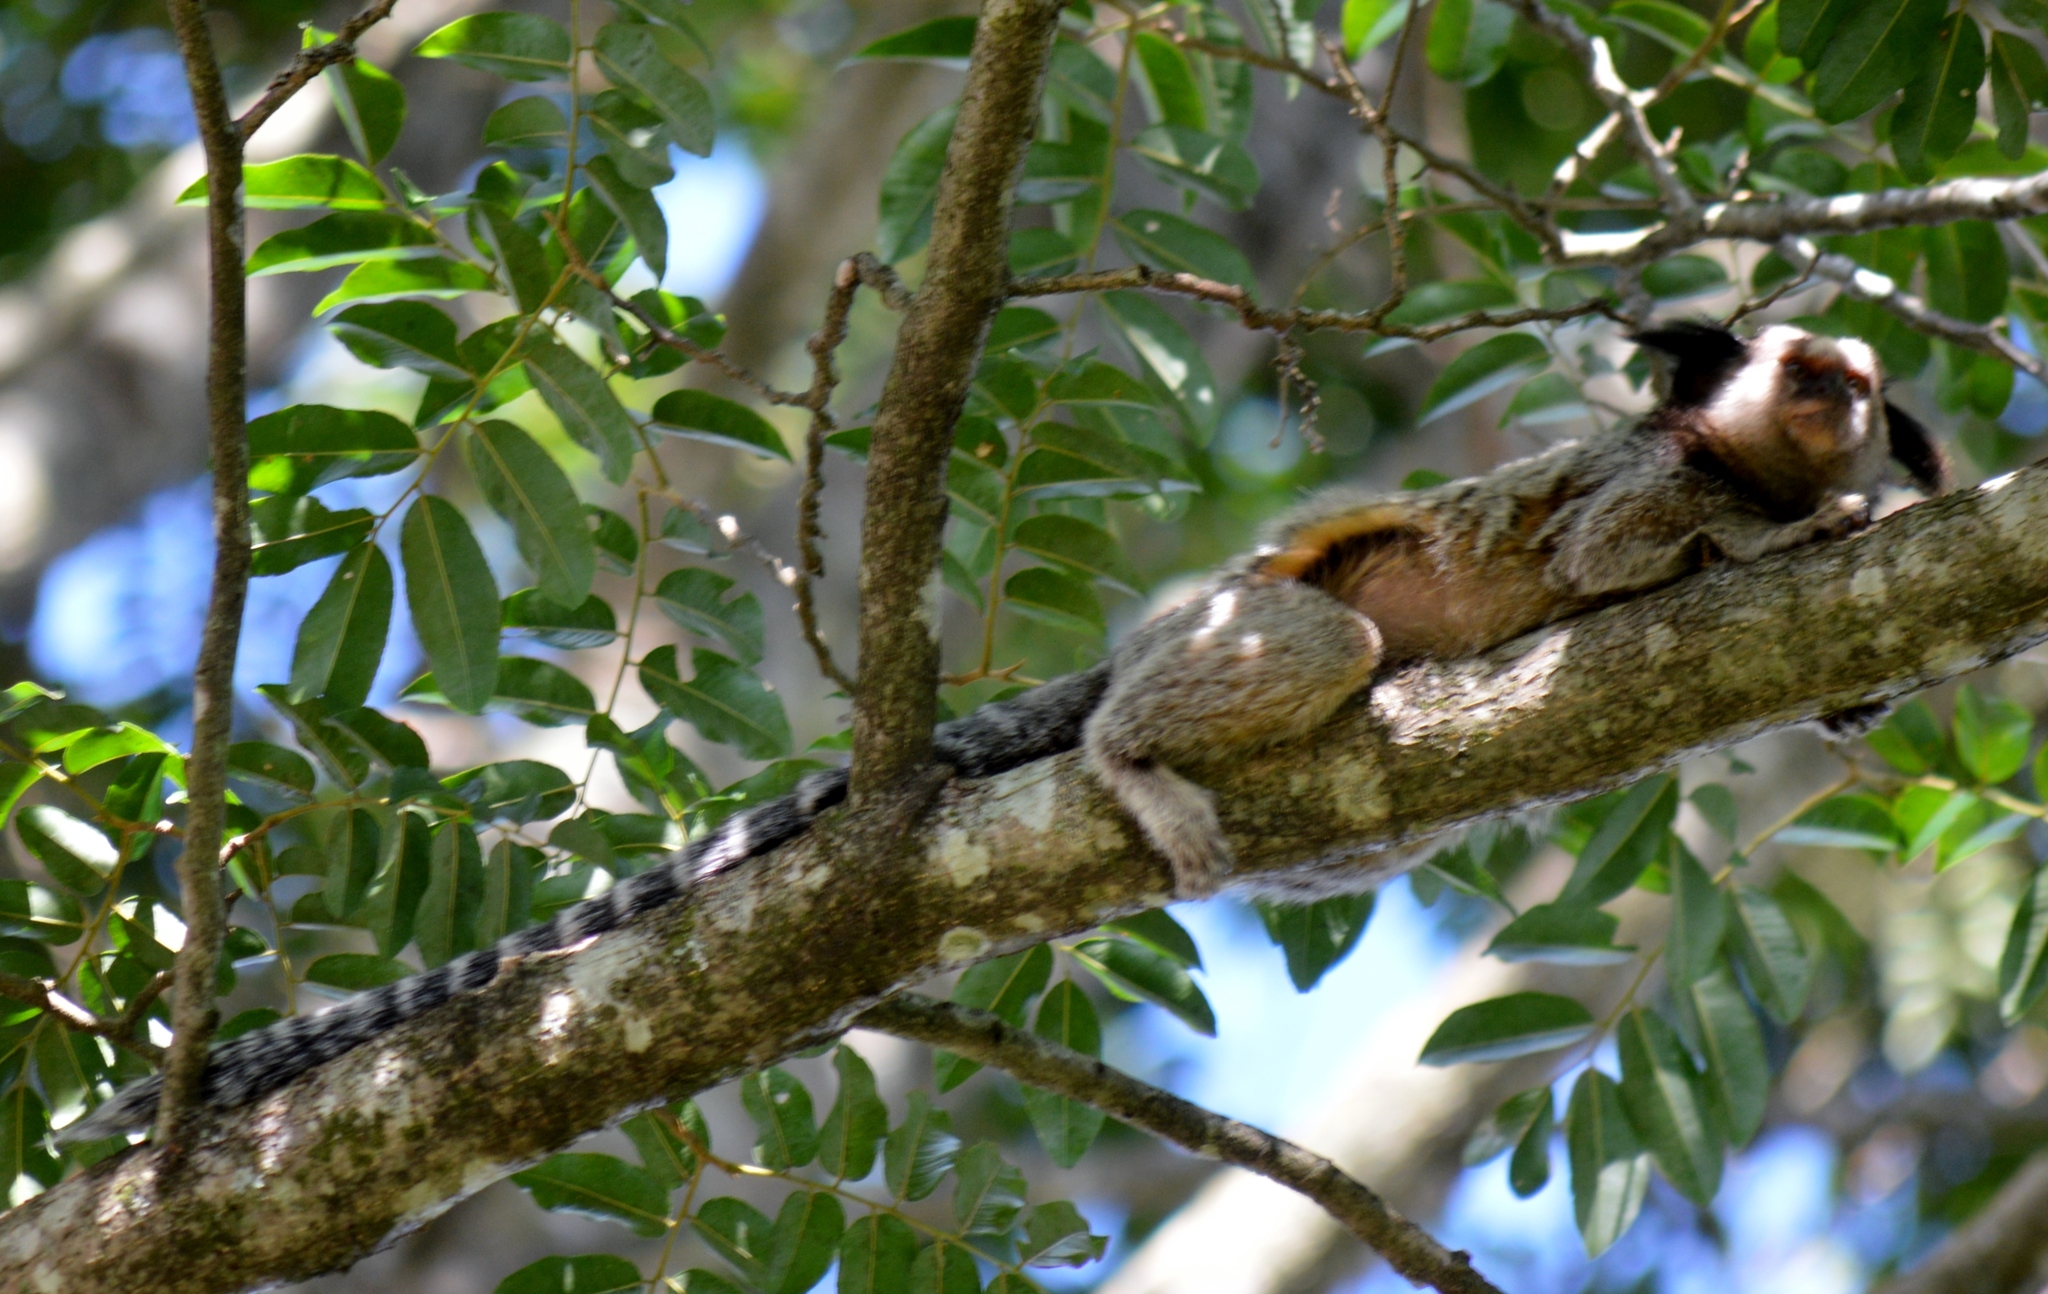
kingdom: Animalia
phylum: Chordata
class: Mammalia
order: Primates
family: Callitrichidae
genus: Callithrix
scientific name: Callithrix penicillata
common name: Black-tufted marmoset
